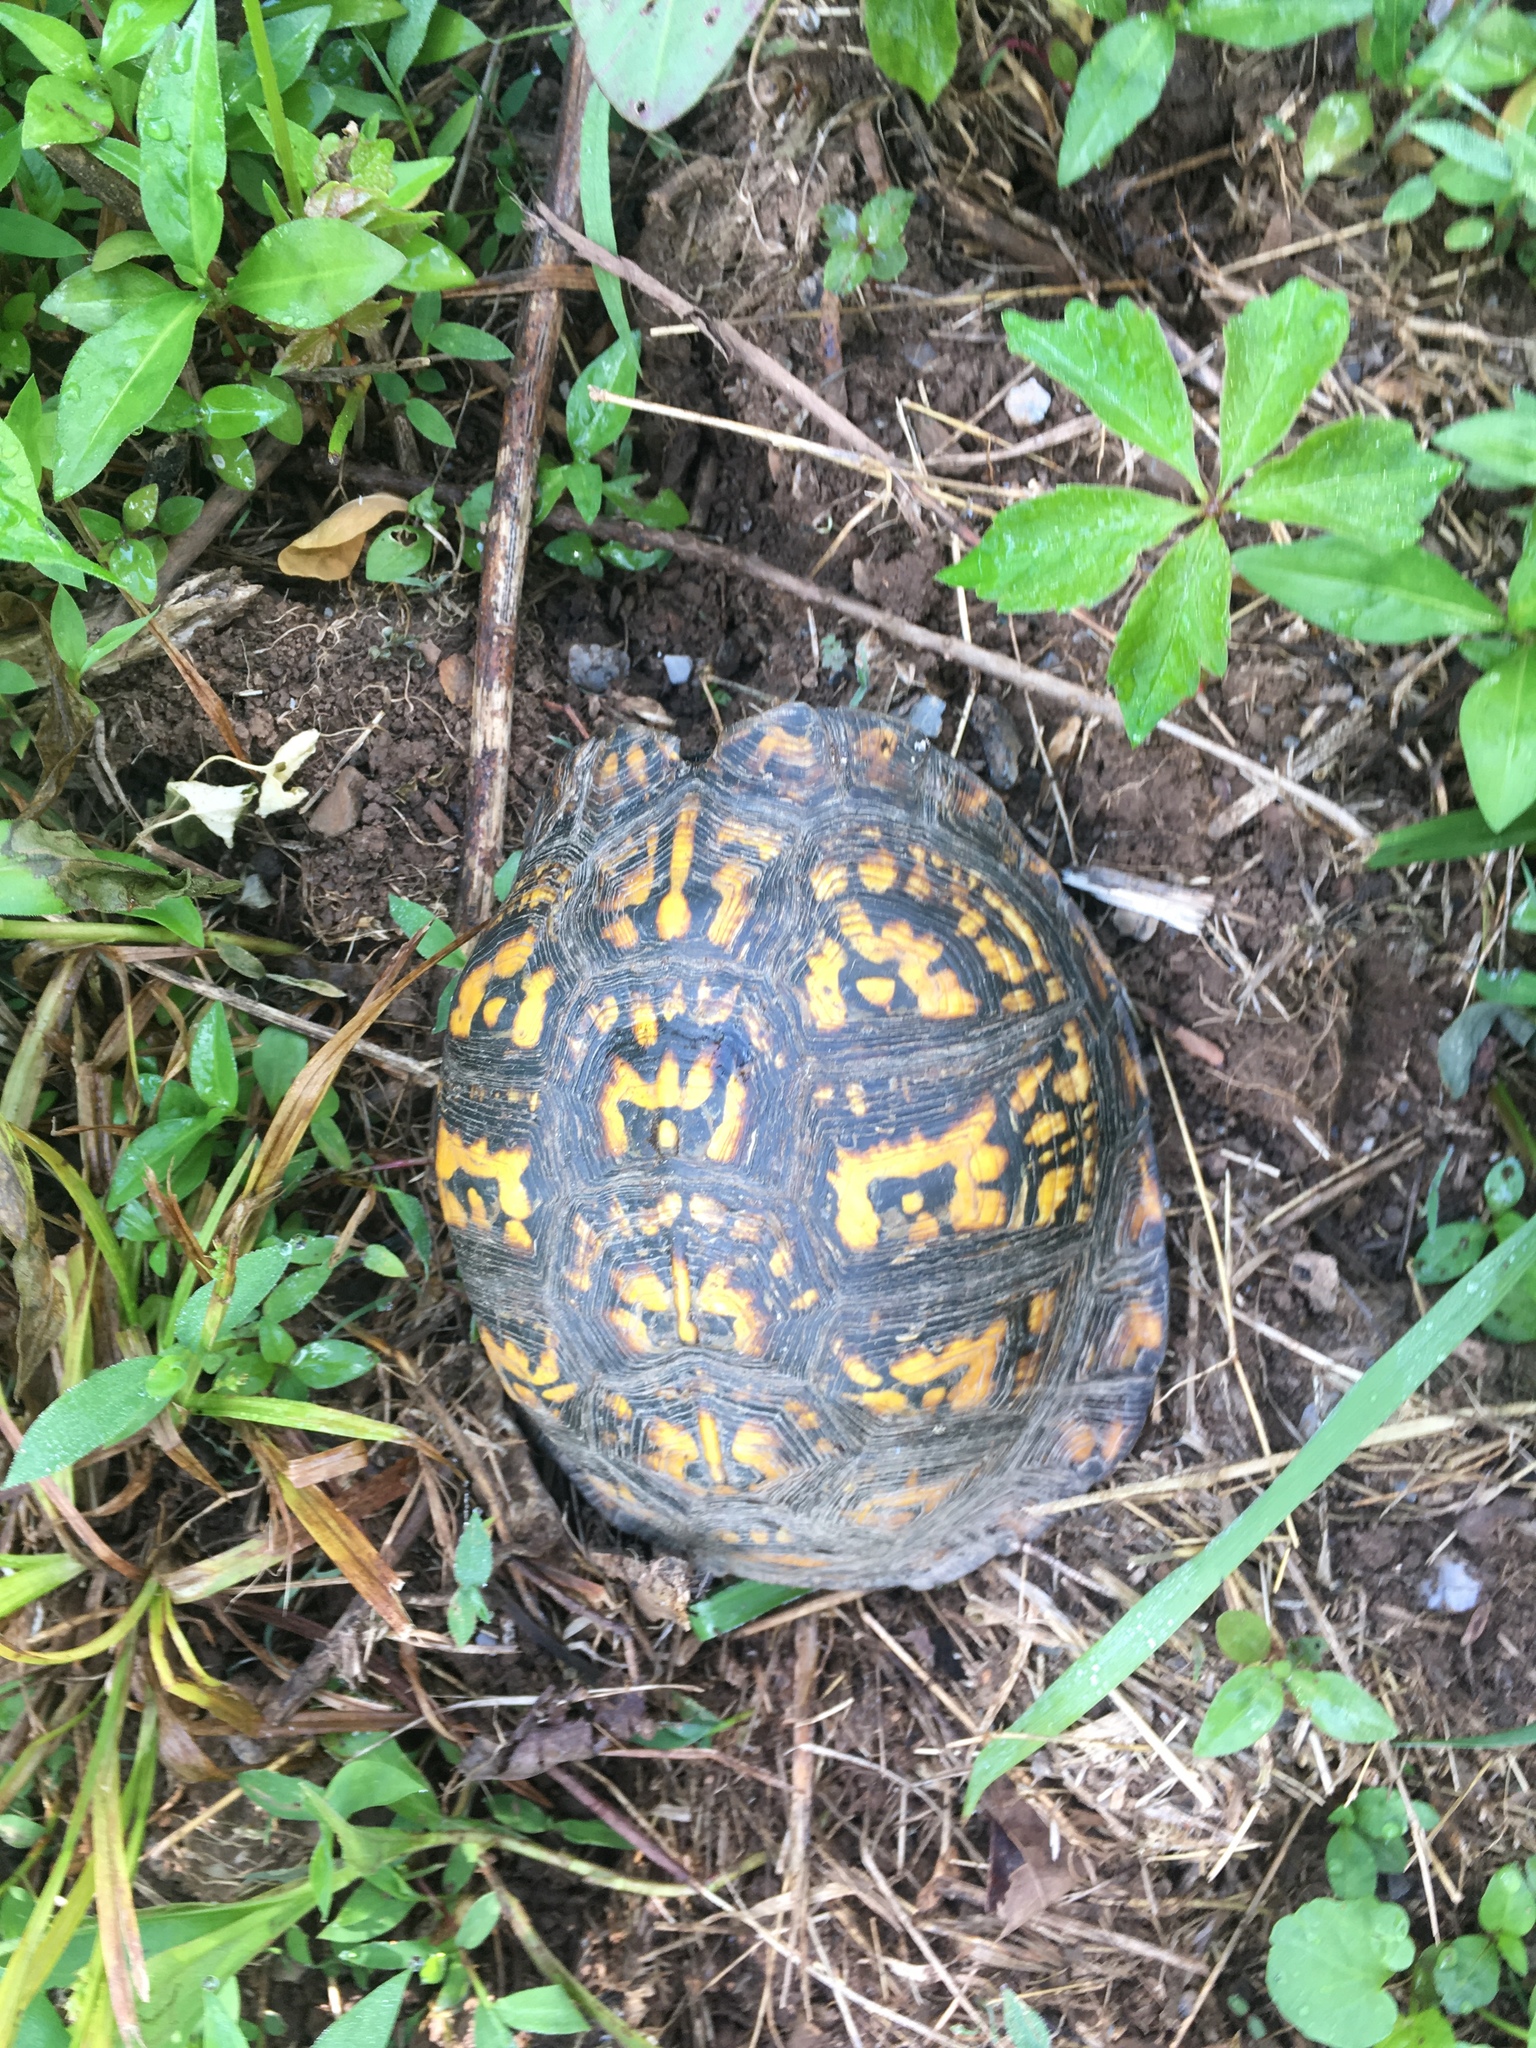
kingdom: Animalia
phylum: Chordata
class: Testudines
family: Emydidae
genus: Terrapene
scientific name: Terrapene carolina
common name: Common box turtle
